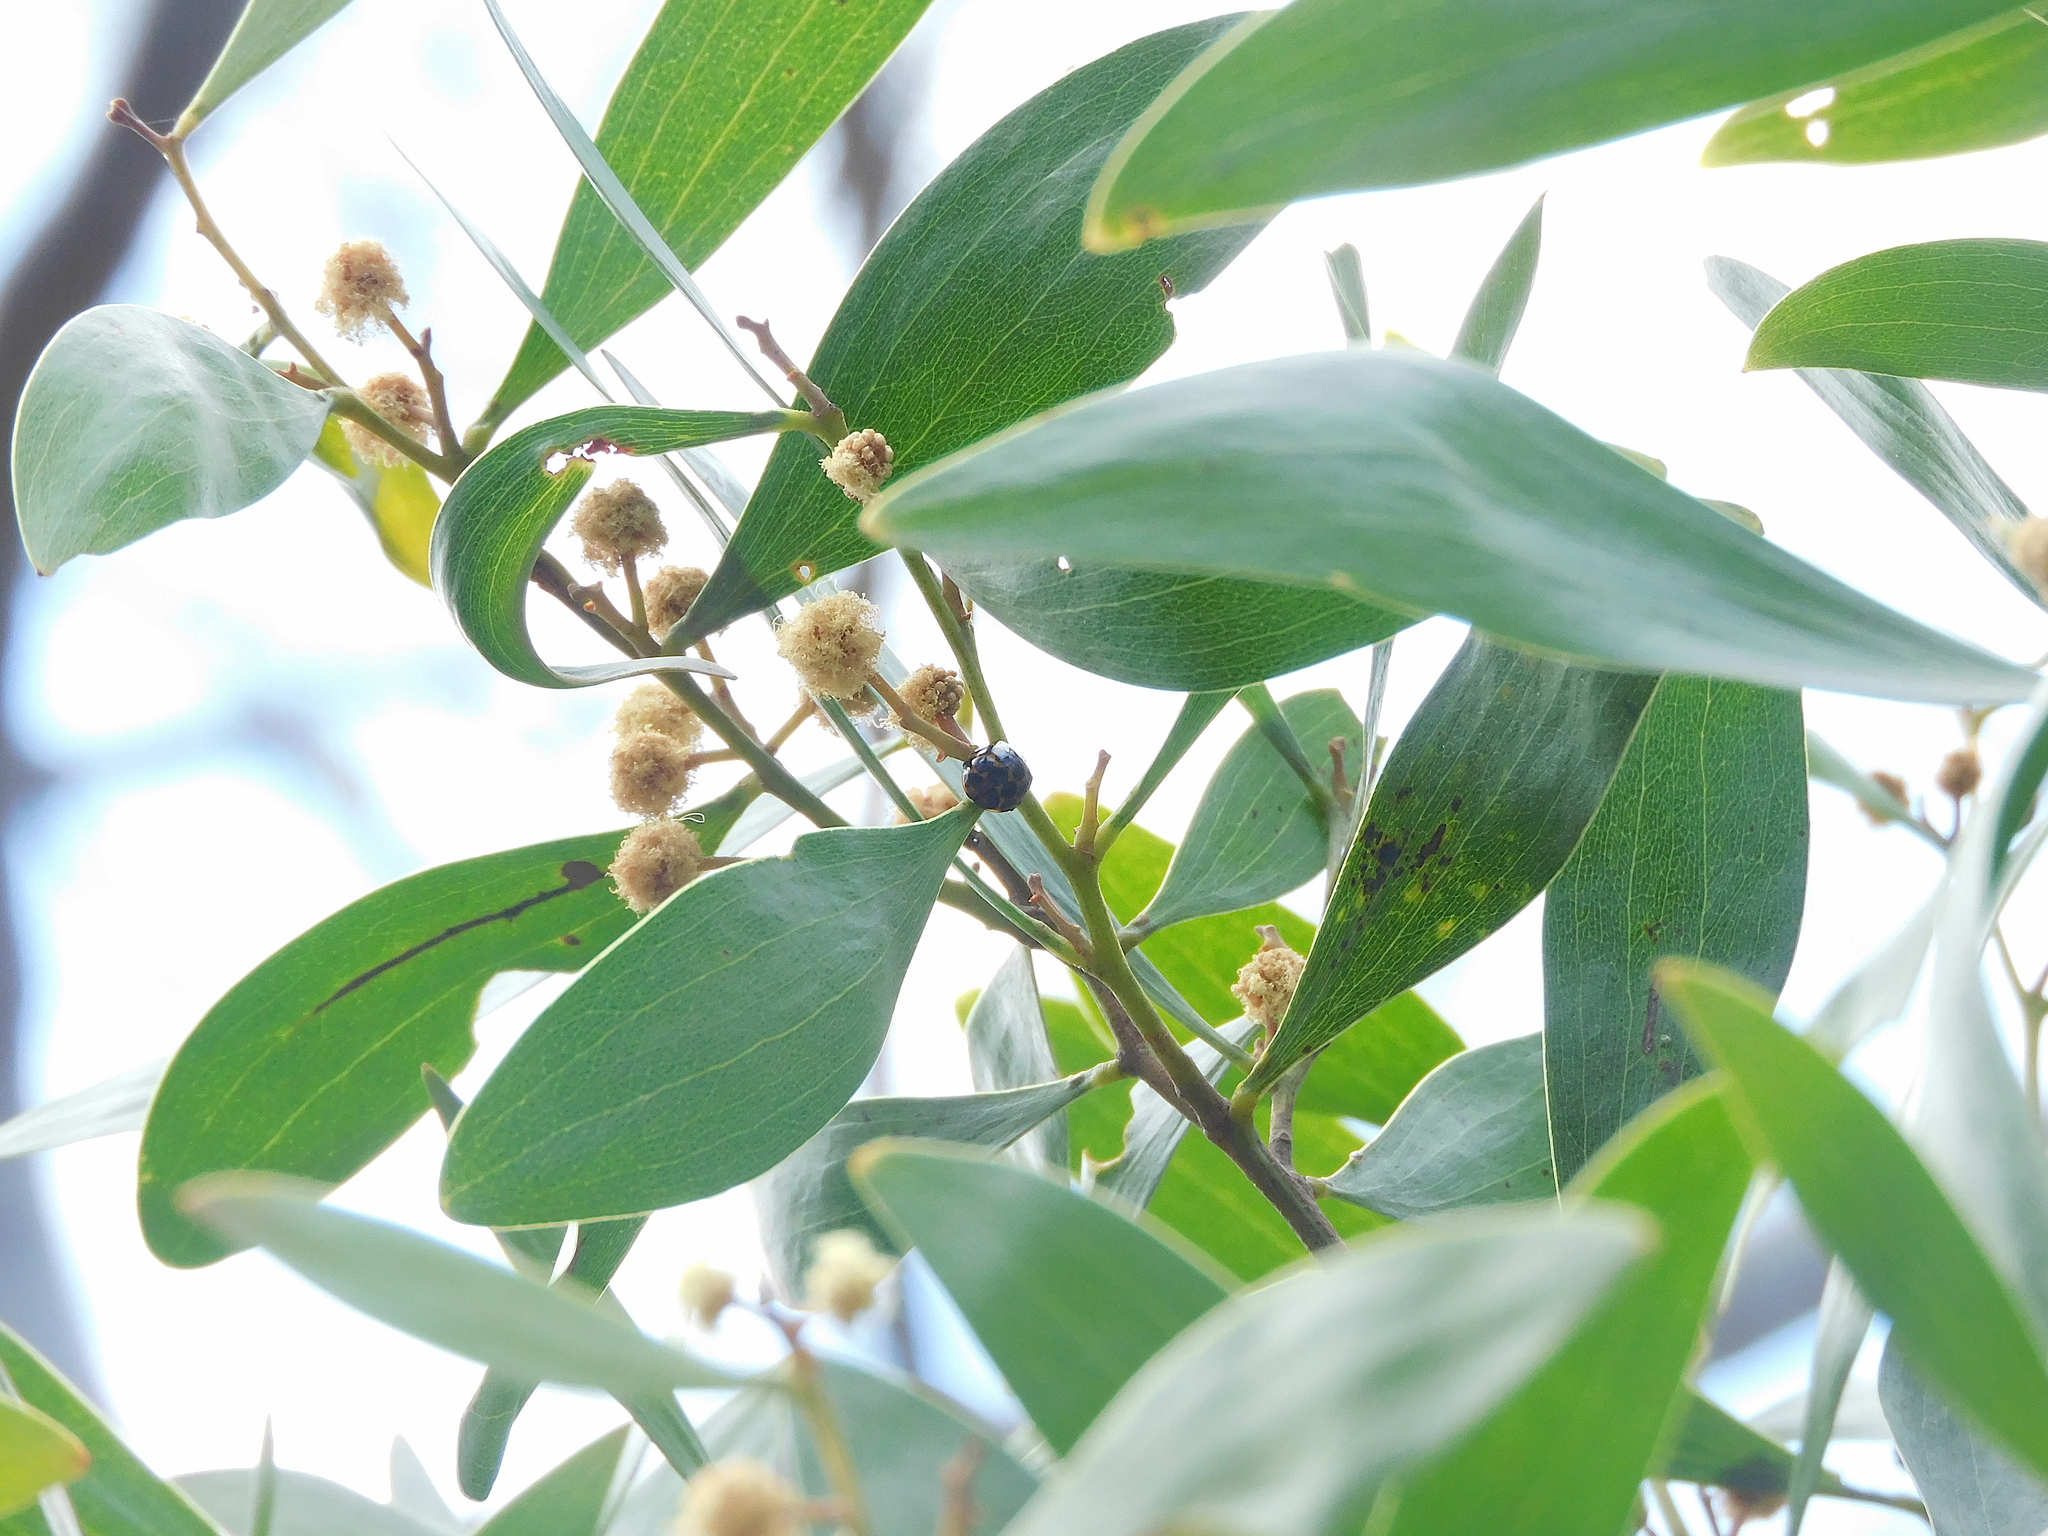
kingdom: Animalia
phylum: Arthropoda
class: Insecta
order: Coleoptera
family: Coccinellidae
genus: Harmonia
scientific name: Harmonia conformis
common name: Common spotted ladybird beetle
